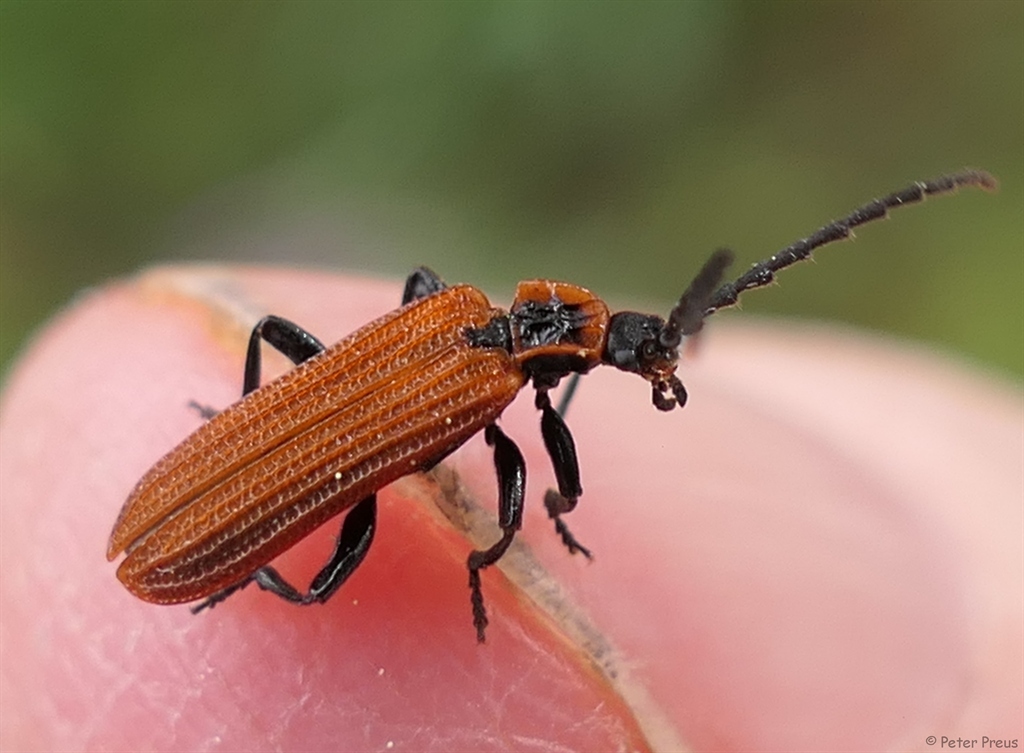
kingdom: Animalia
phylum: Arthropoda
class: Insecta
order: Coleoptera
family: Lycidae
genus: Erotides
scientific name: Erotides cosnardi
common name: Cosnard's net-winged beetle
